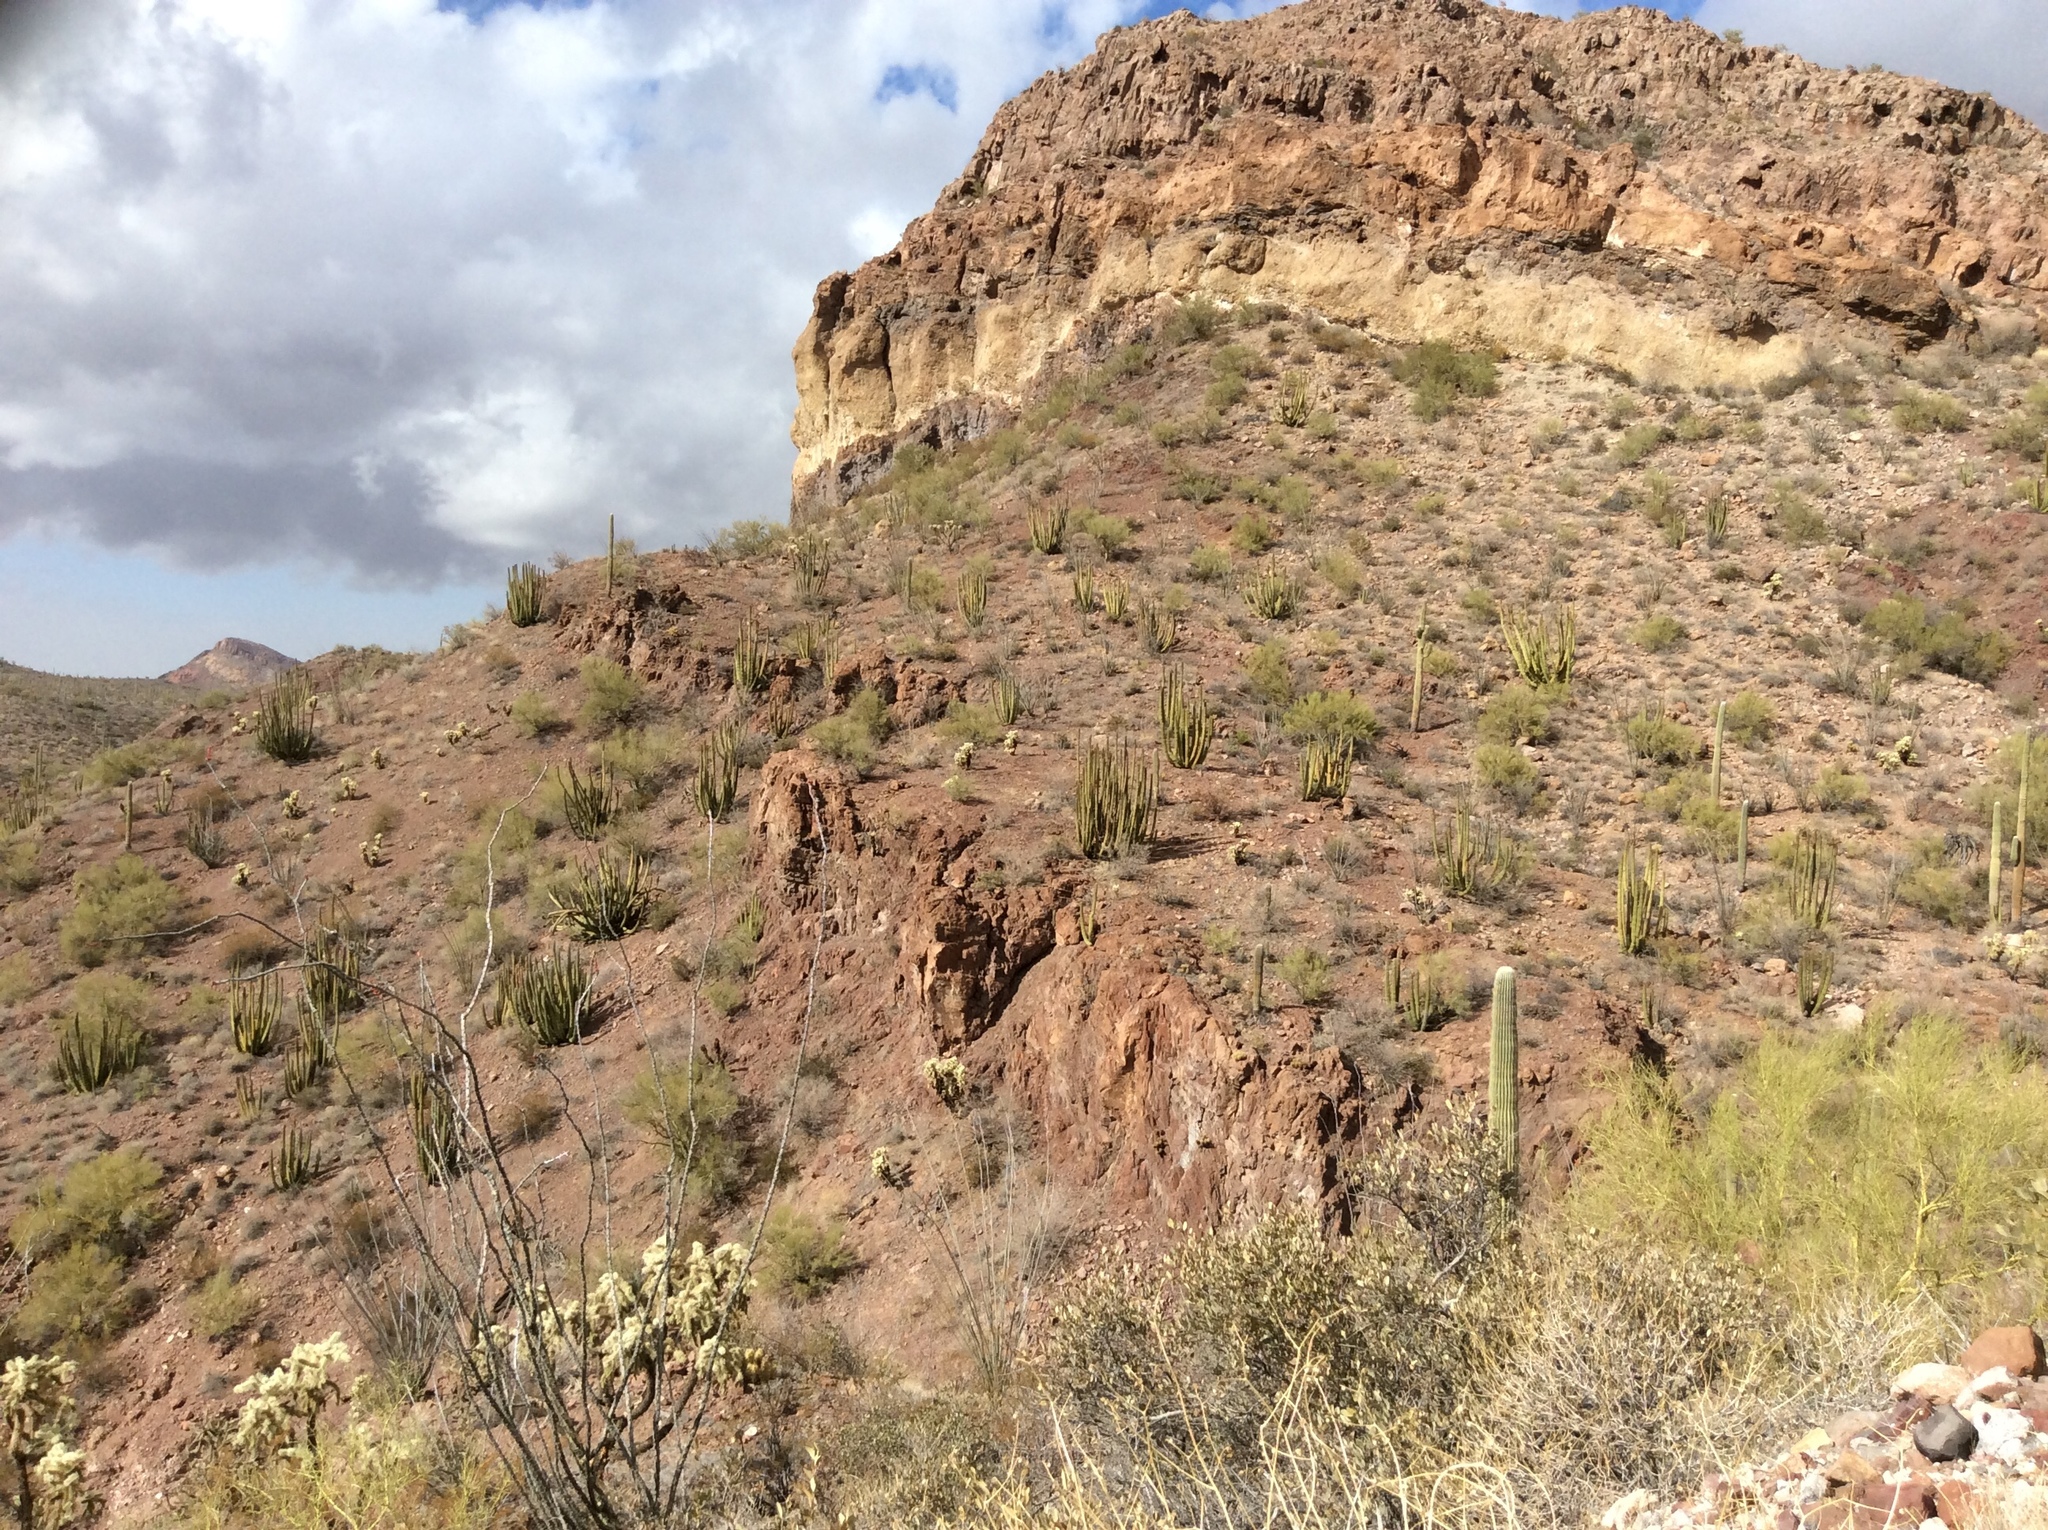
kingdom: Plantae
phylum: Tracheophyta
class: Magnoliopsida
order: Caryophyllales
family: Cactaceae
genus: Stenocereus
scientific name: Stenocereus thurberi
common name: Organ pipe cactus
